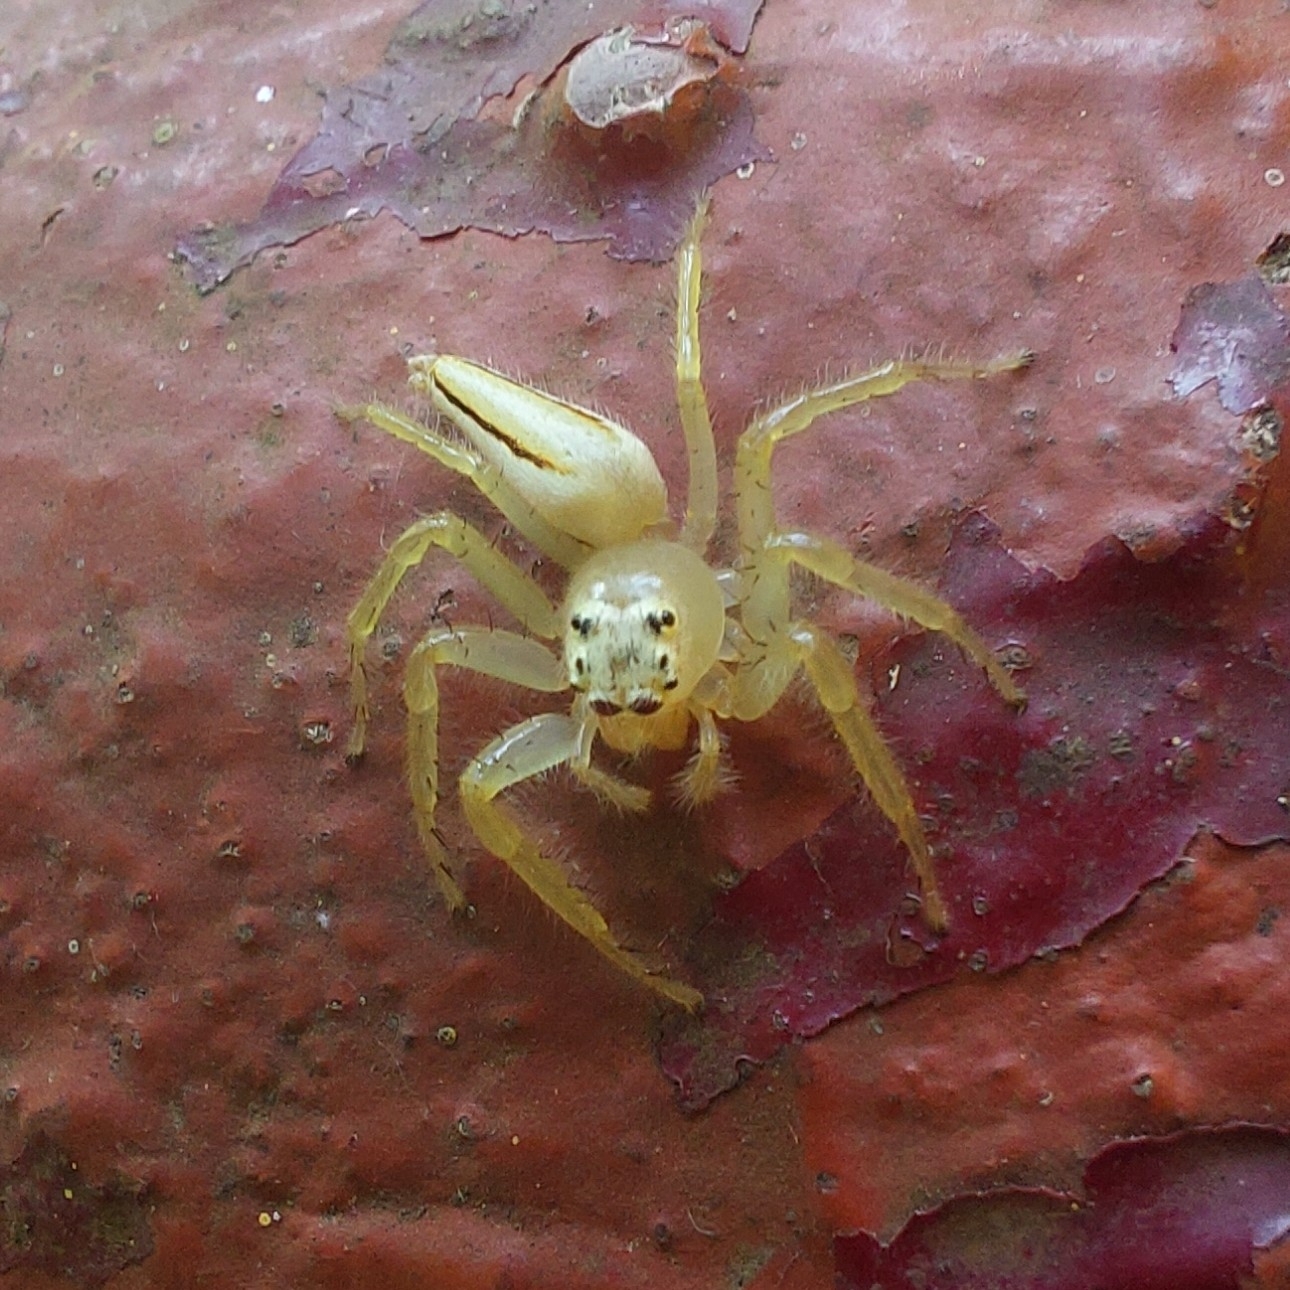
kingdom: Animalia
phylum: Arthropoda
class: Arachnida
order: Araneae
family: Salticidae
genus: Telamonia
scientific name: Telamonia dimidiata
